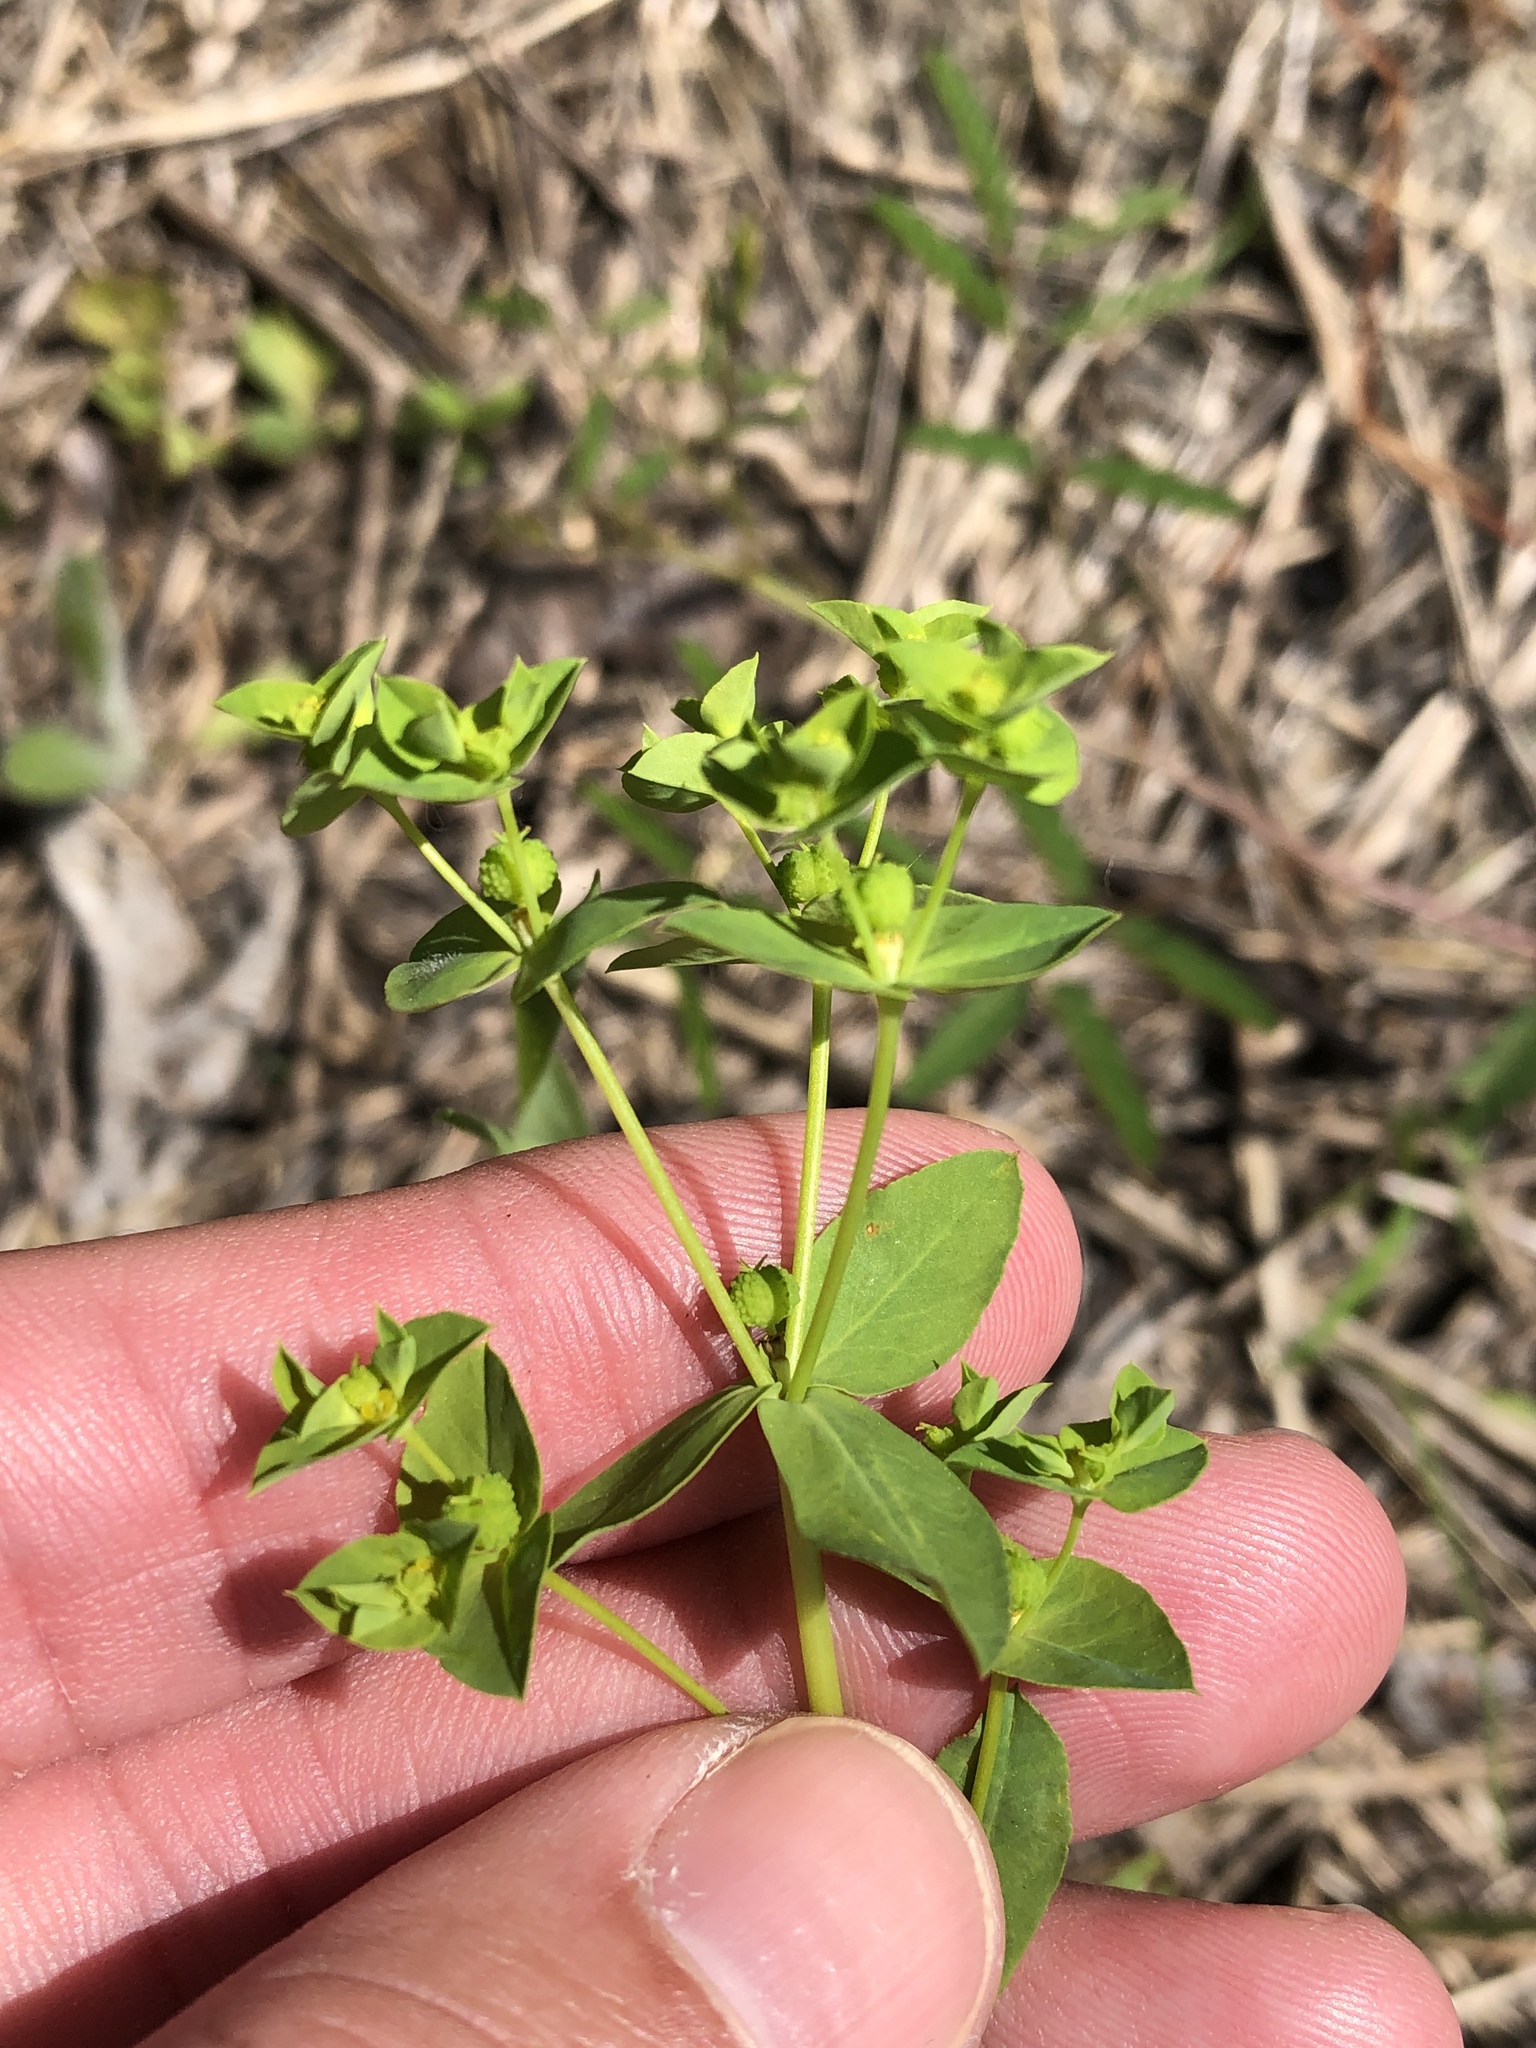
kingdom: Plantae
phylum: Tracheophyta
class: Magnoliopsida
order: Malpighiales
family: Euphorbiaceae
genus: Euphorbia
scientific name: Euphorbia spathulata
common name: Blunt spurge
